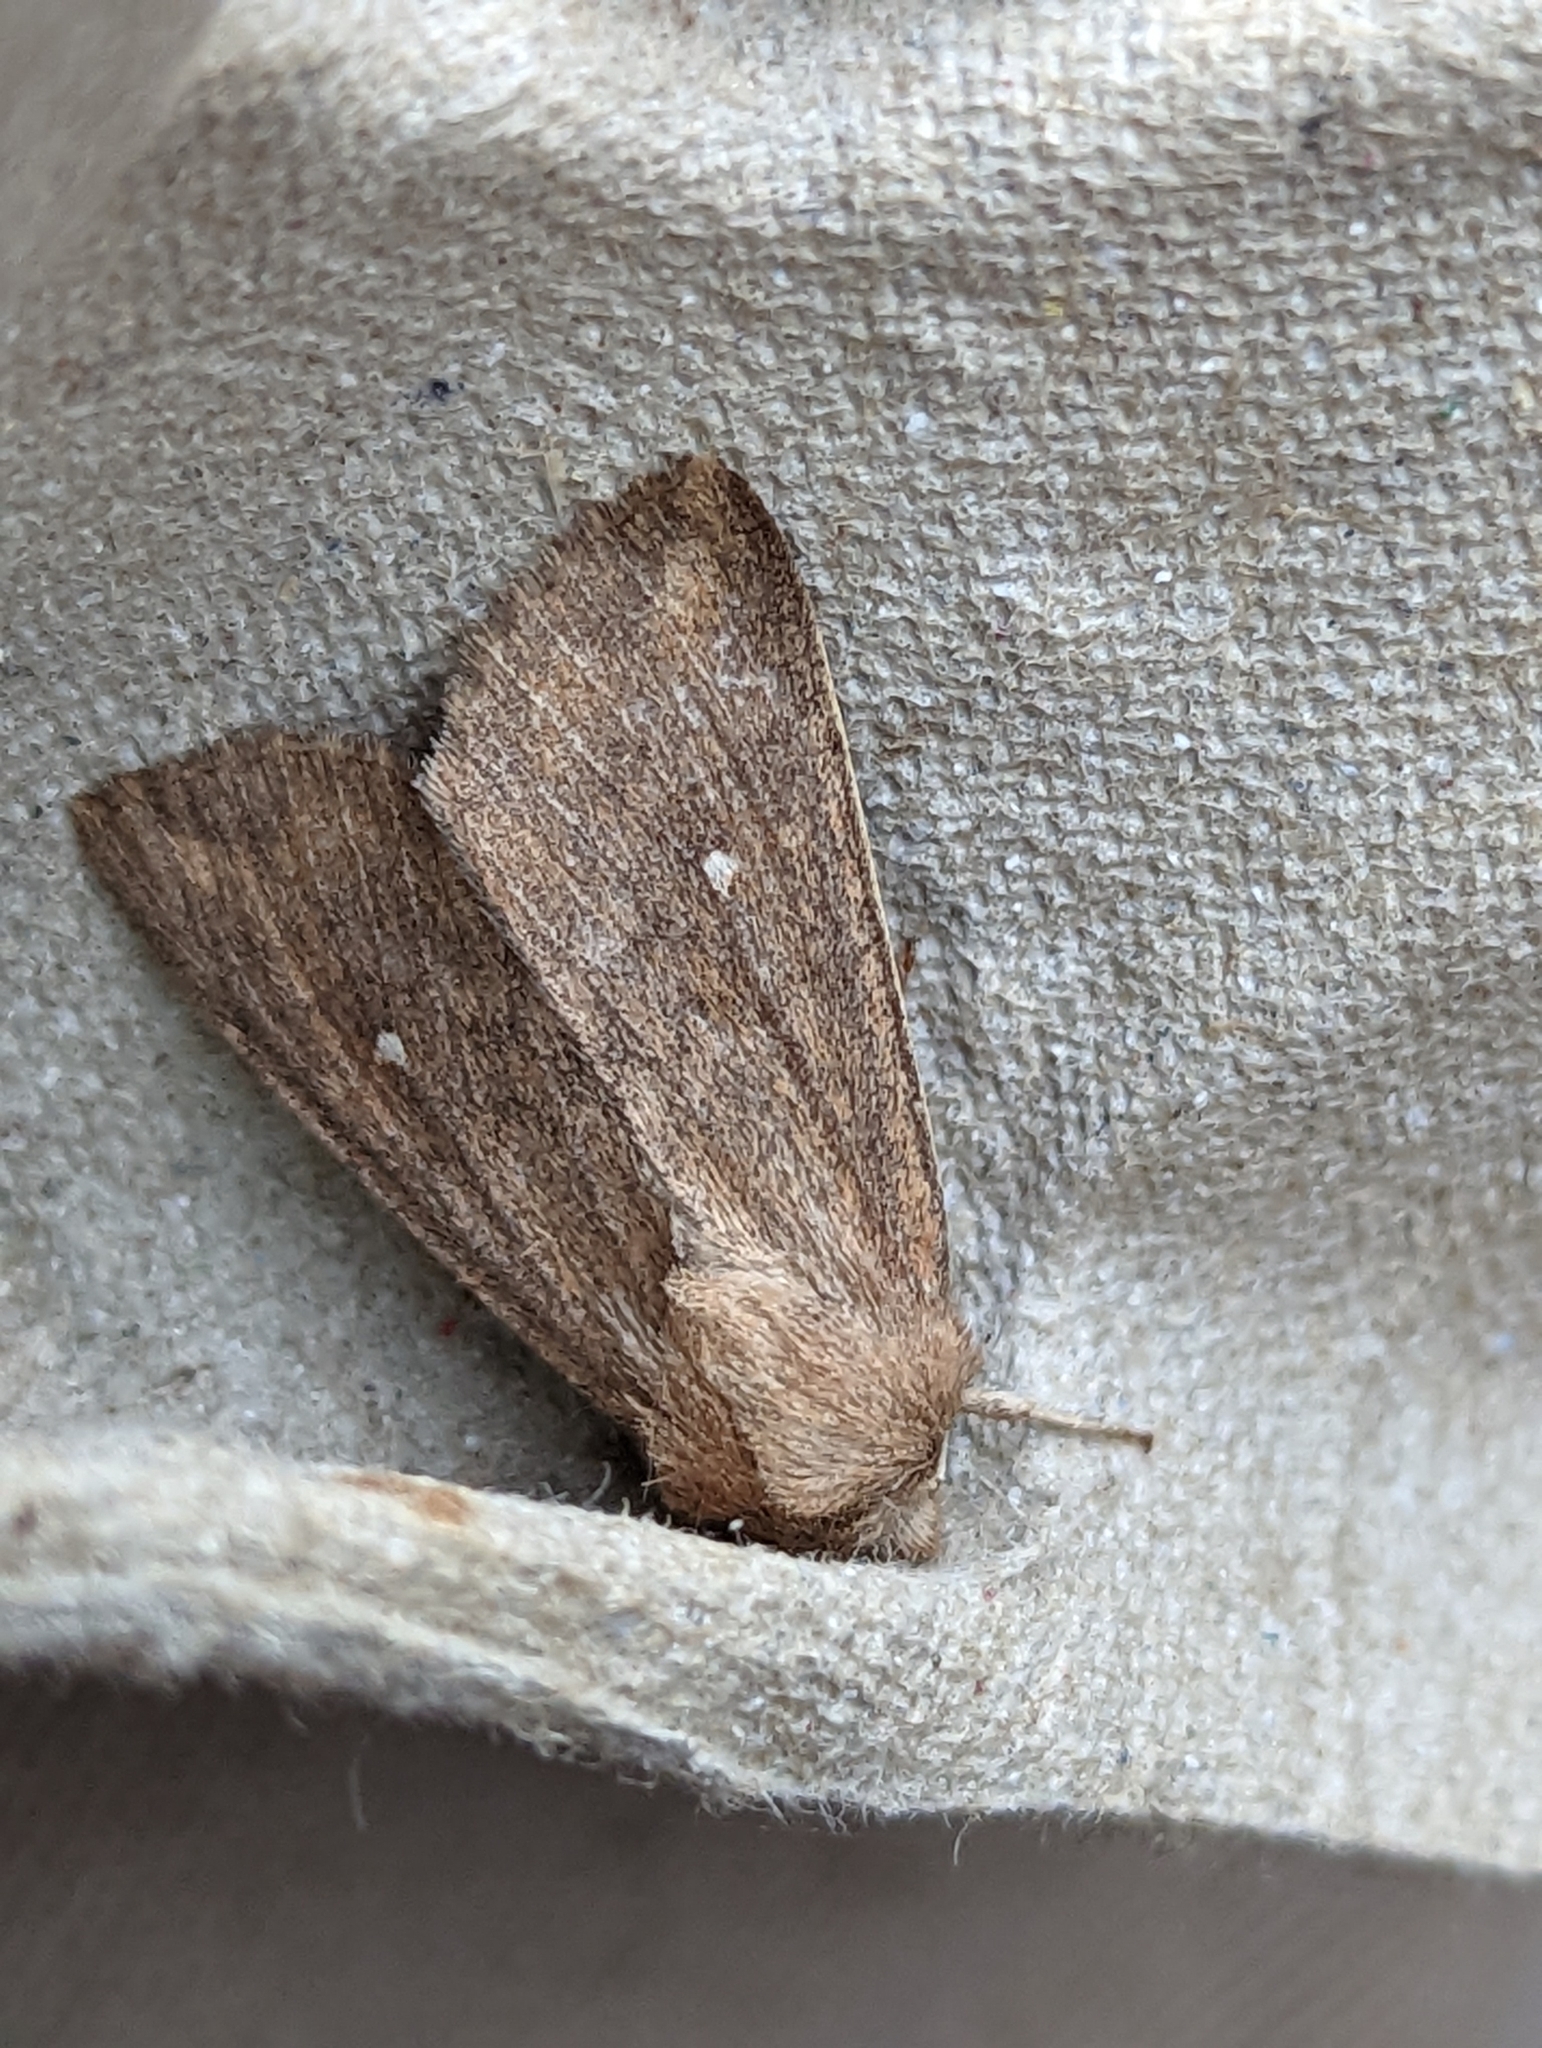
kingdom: Animalia
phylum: Arthropoda
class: Insecta
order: Lepidoptera
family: Noctuidae
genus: Mythimna
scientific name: Mythimna albipuncta
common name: White-point
